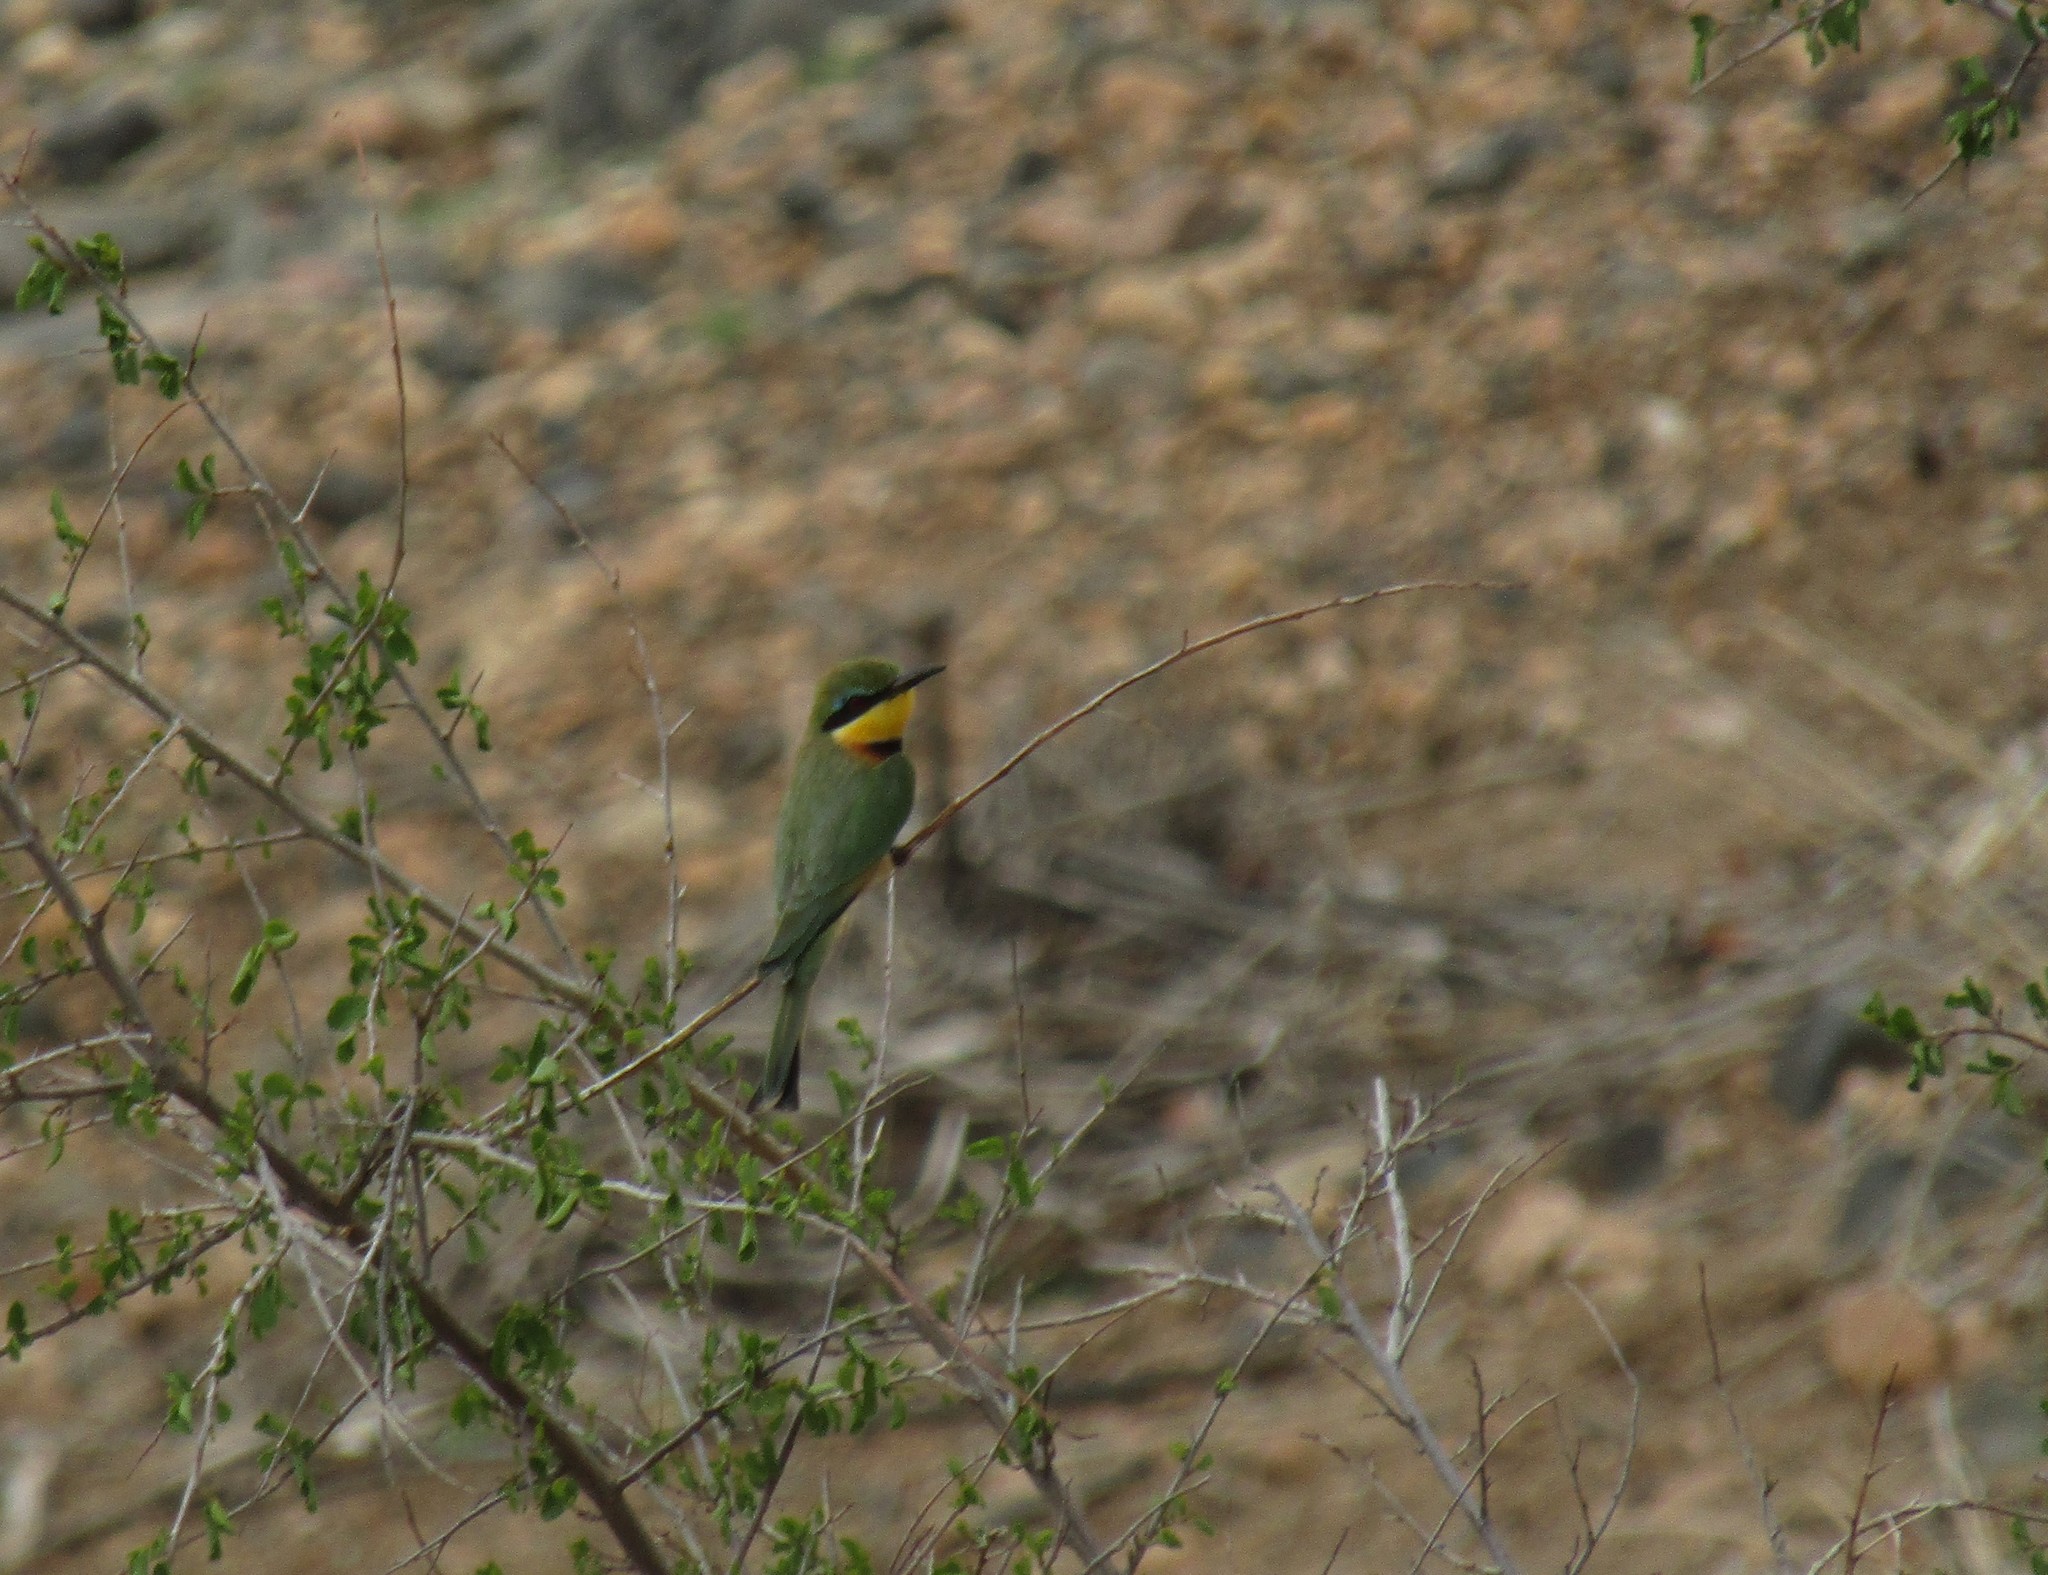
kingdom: Animalia
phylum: Chordata
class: Aves
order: Coraciiformes
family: Meropidae
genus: Merops
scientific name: Merops pusillus
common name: Little bee-eater
